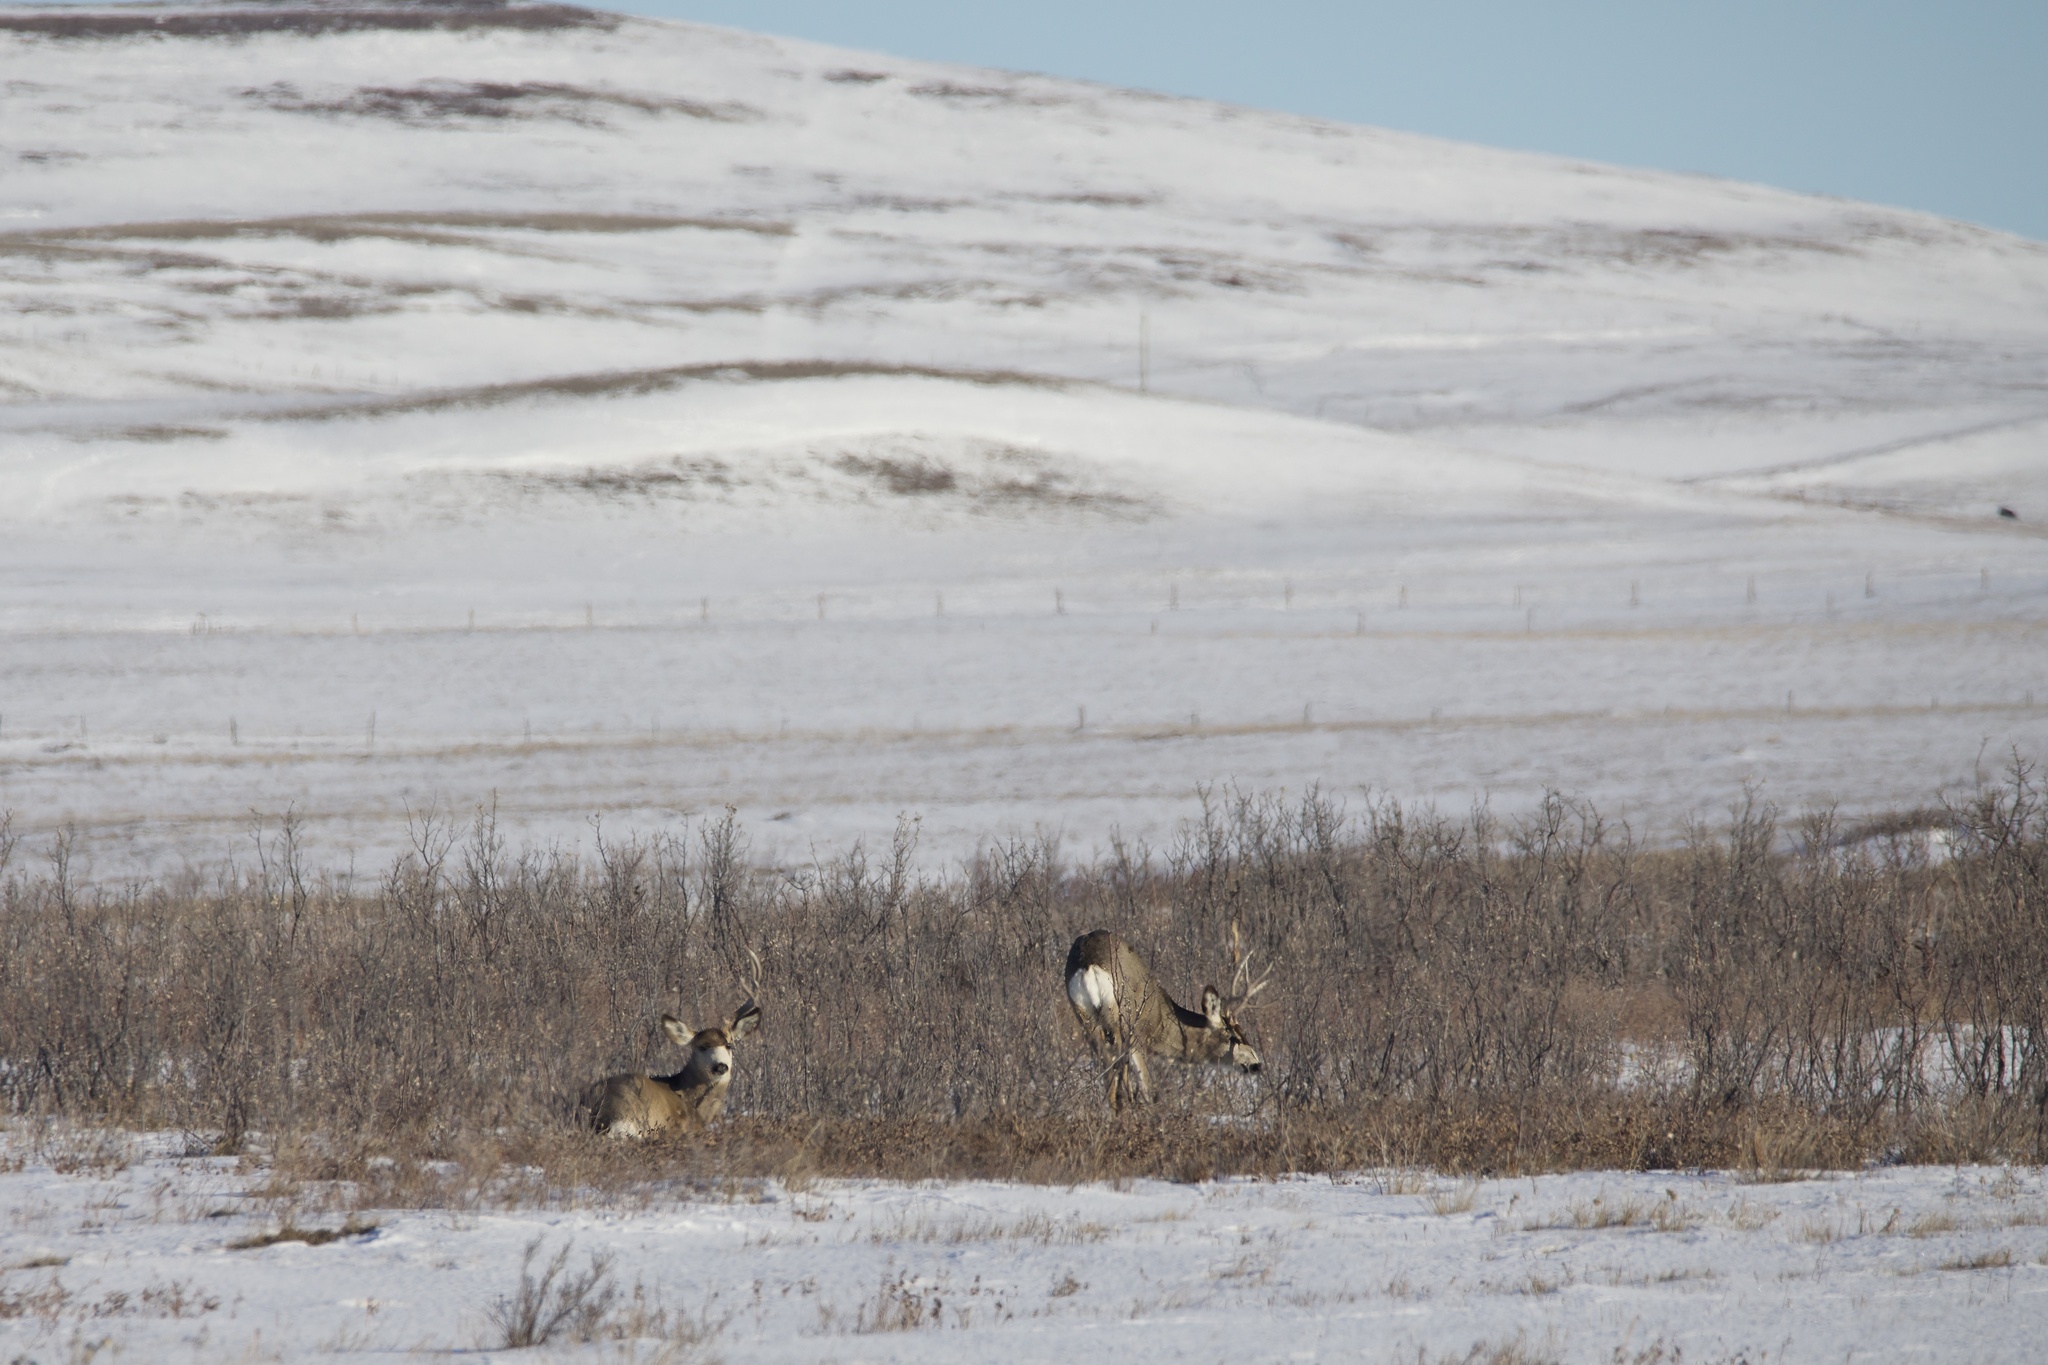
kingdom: Animalia
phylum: Chordata
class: Mammalia
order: Artiodactyla
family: Cervidae
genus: Odocoileus
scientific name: Odocoileus hemionus
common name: Mule deer
